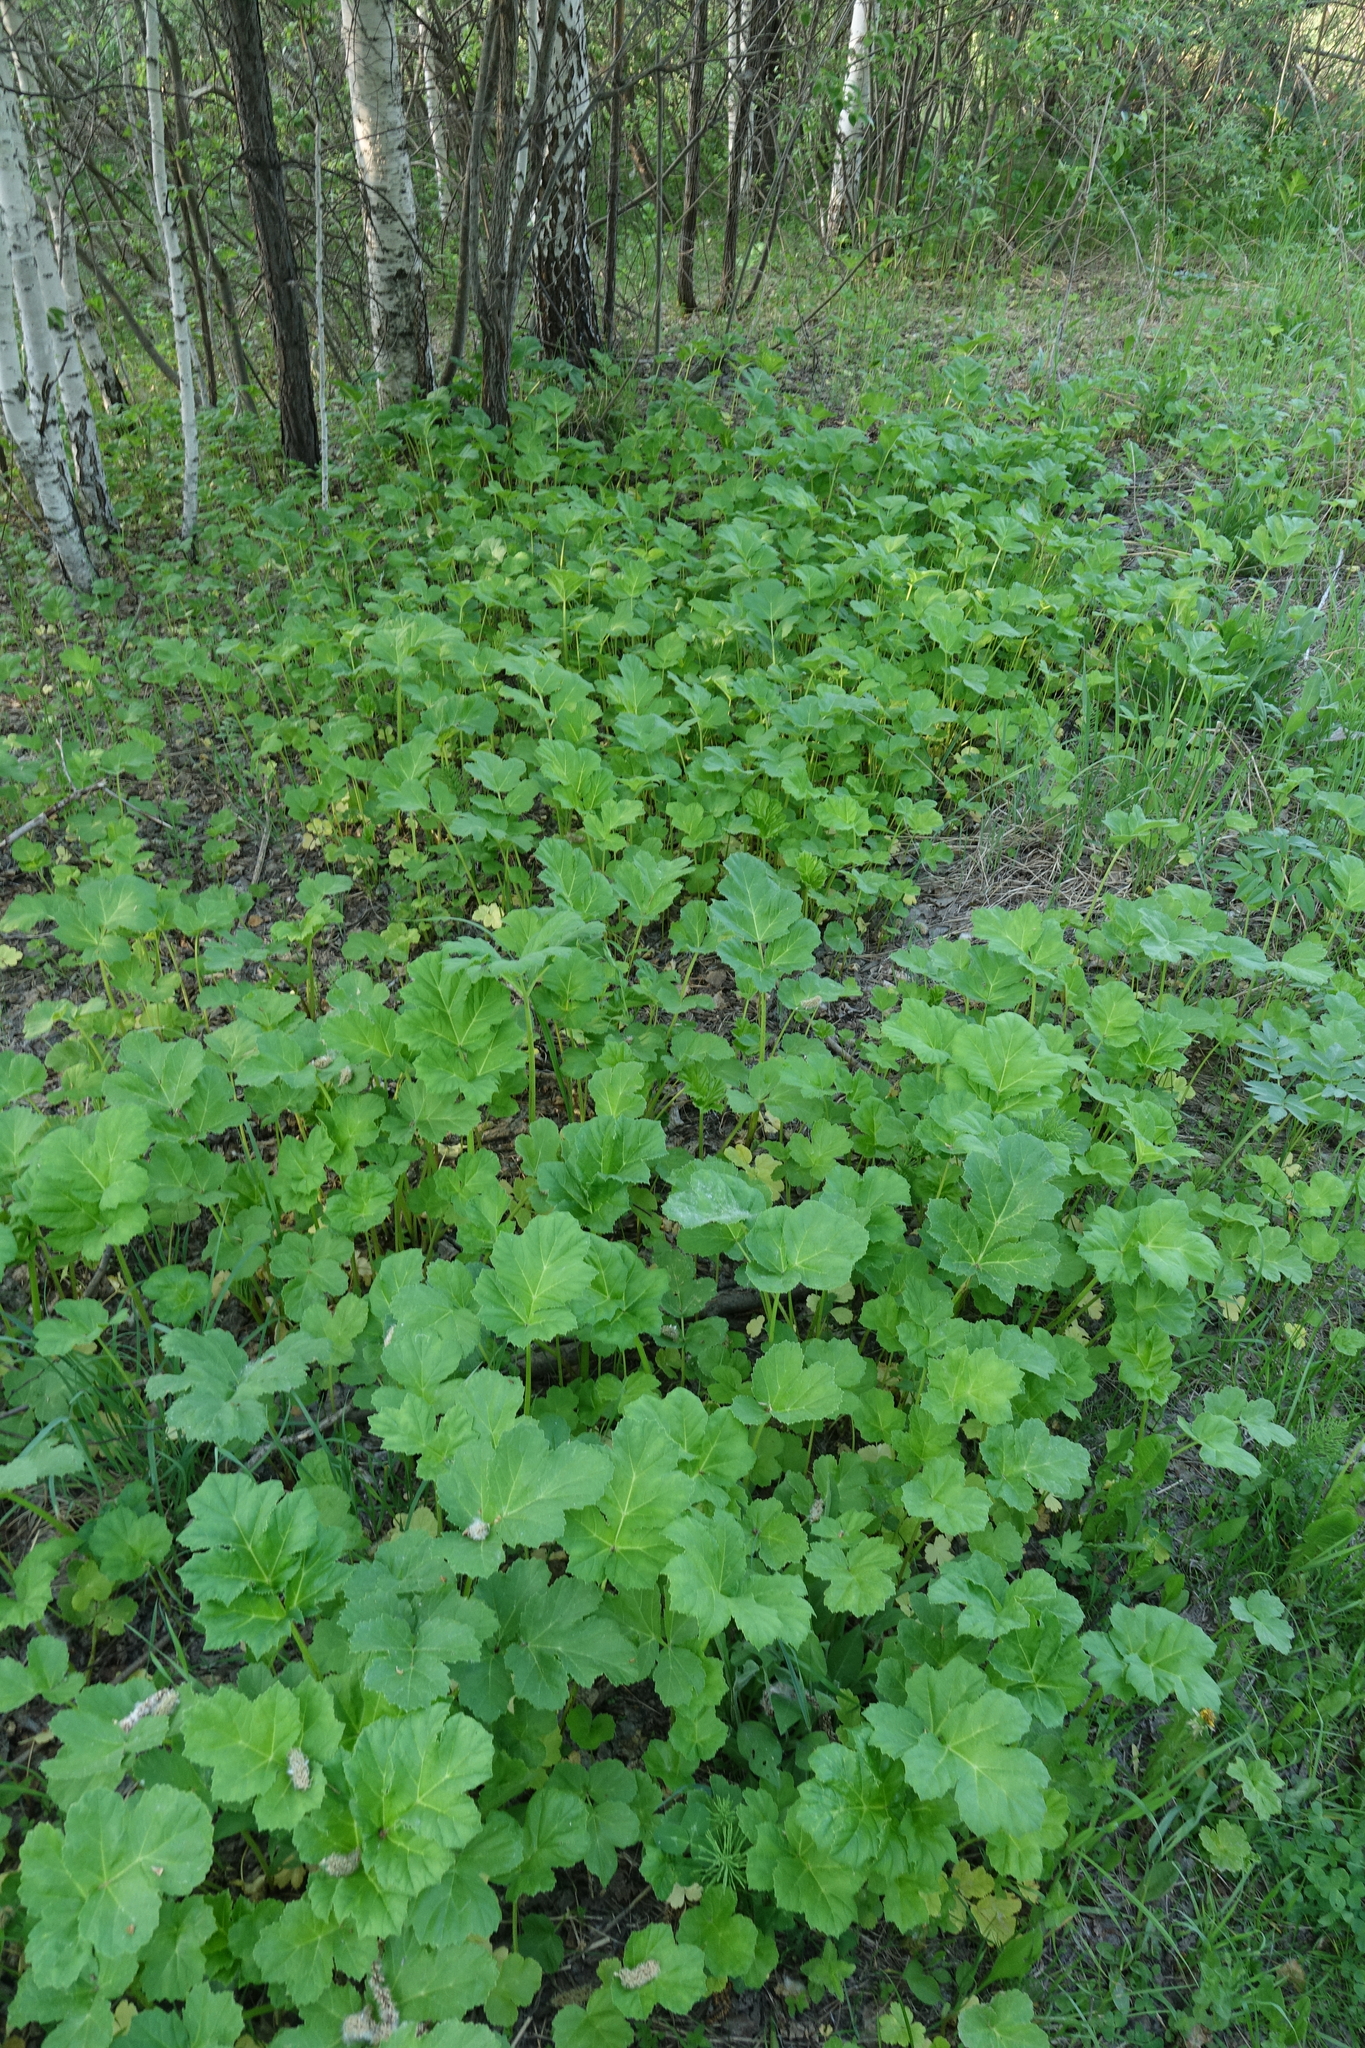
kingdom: Plantae
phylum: Tracheophyta
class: Magnoliopsida
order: Apiales
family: Apiaceae
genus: Heracleum
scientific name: Heracleum sosnowskyi
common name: Sosnowsky's hogweed
